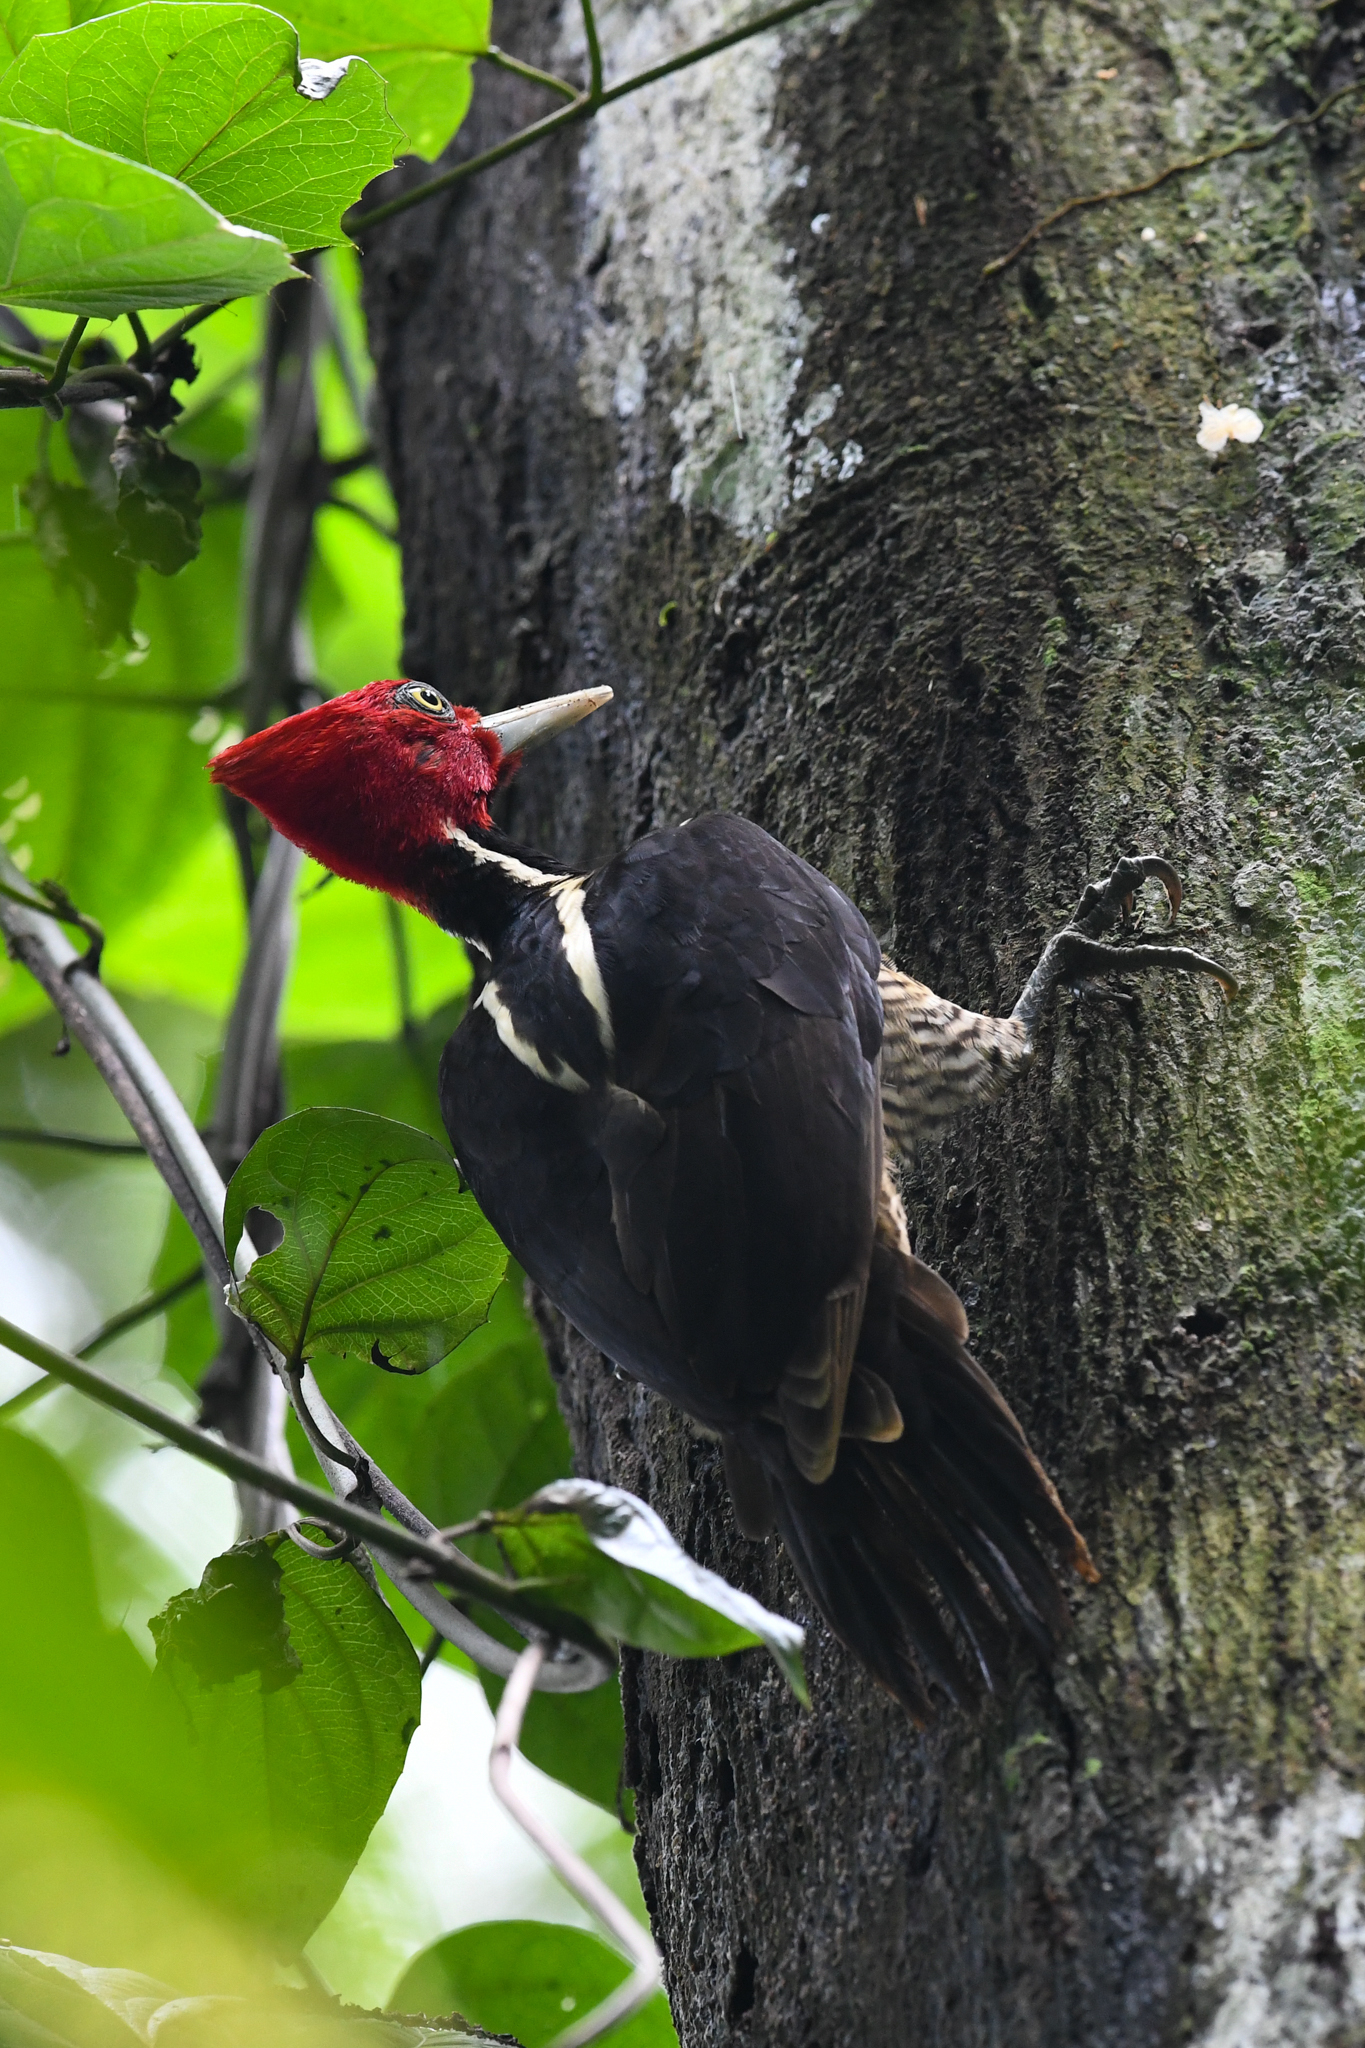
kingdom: Animalia
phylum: Chordata
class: Aves
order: Piciformes
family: Picidae
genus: Campephilus
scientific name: Campephilus guatemalensis
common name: Pale-billed woodpecker
